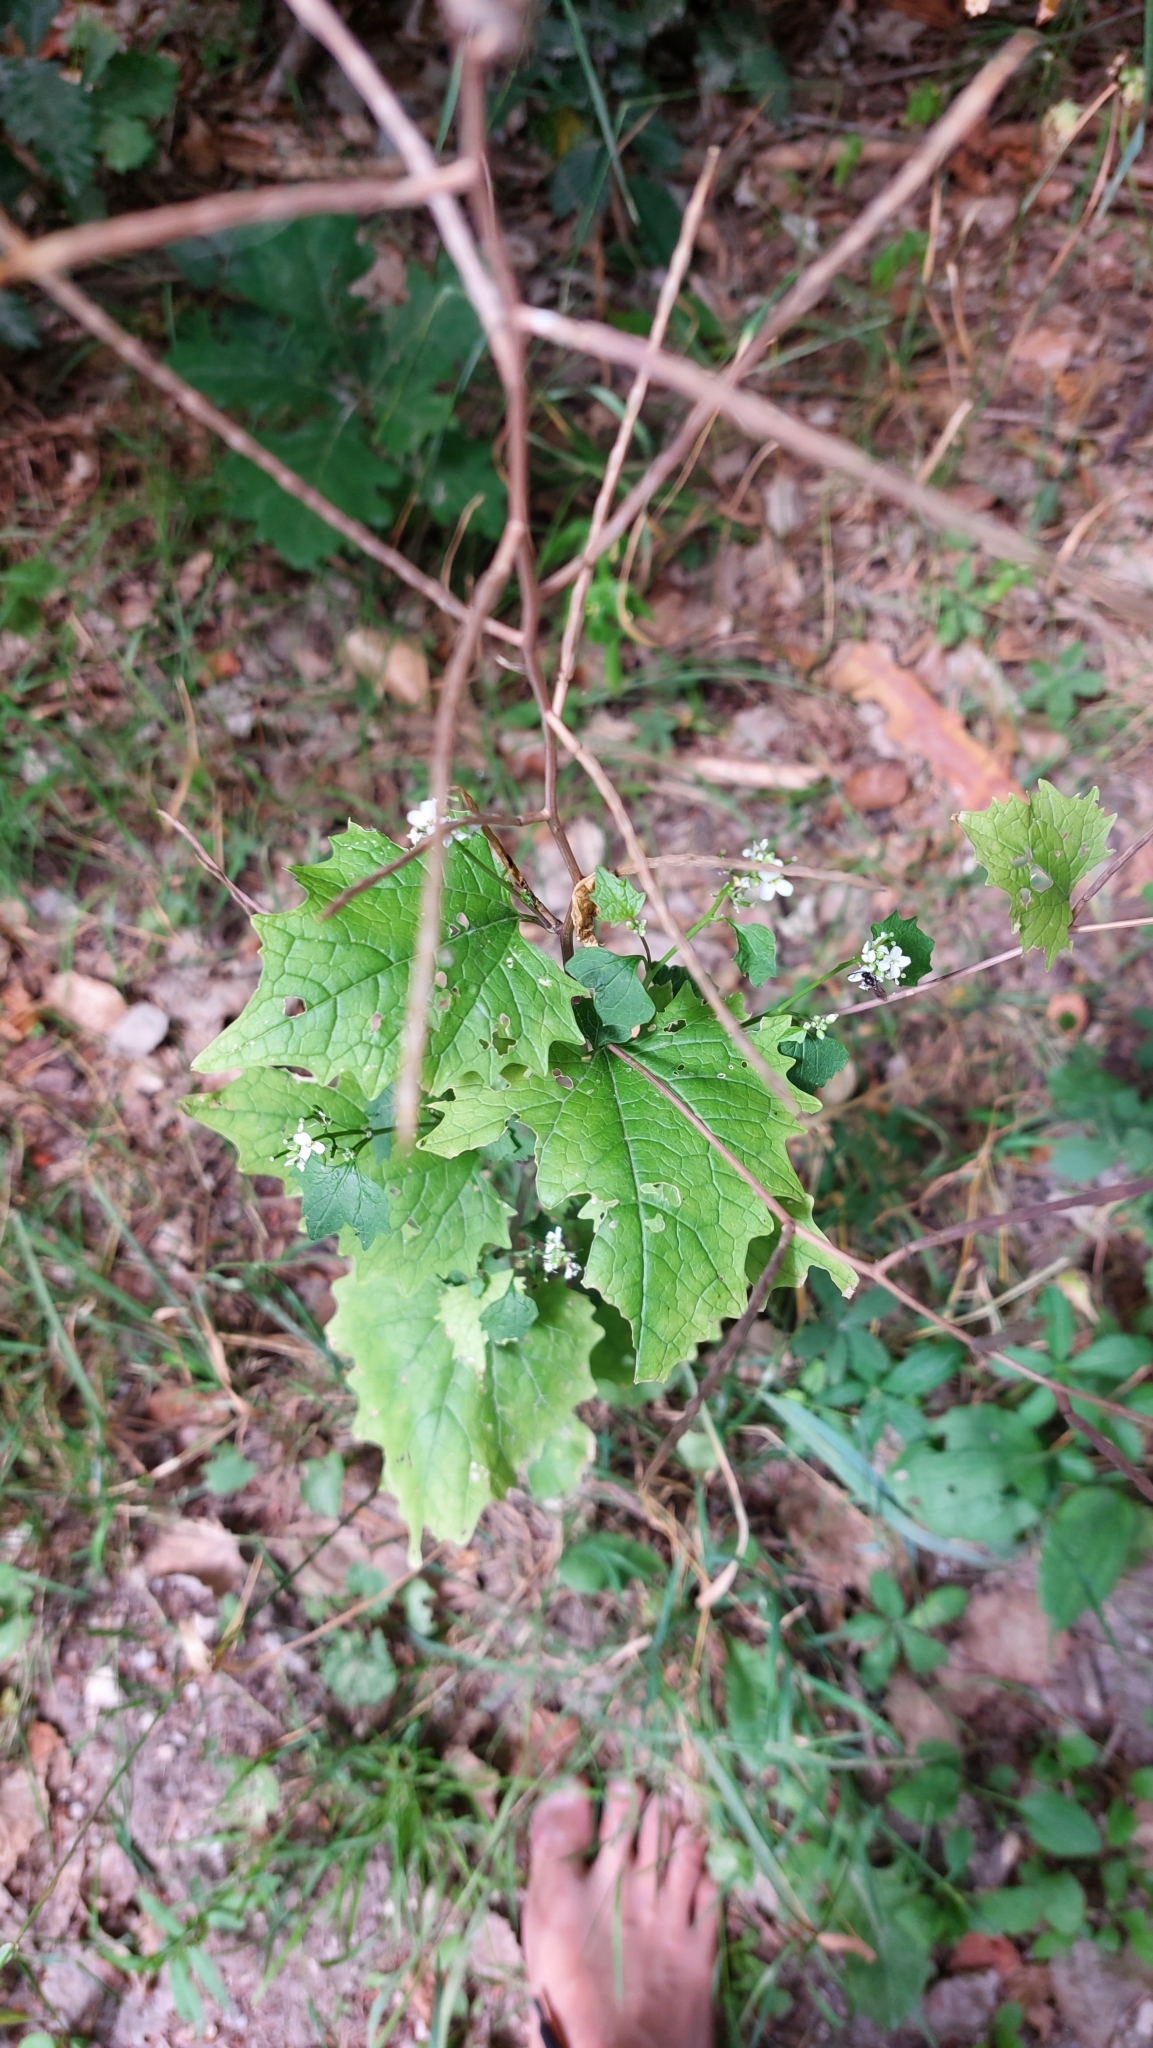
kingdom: Plantae
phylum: Tracheophyta
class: Magnoliopsida
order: Brassicales
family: Brassicaceae
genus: Alliaria
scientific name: Alliaria petiolata
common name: Garlic mustard
